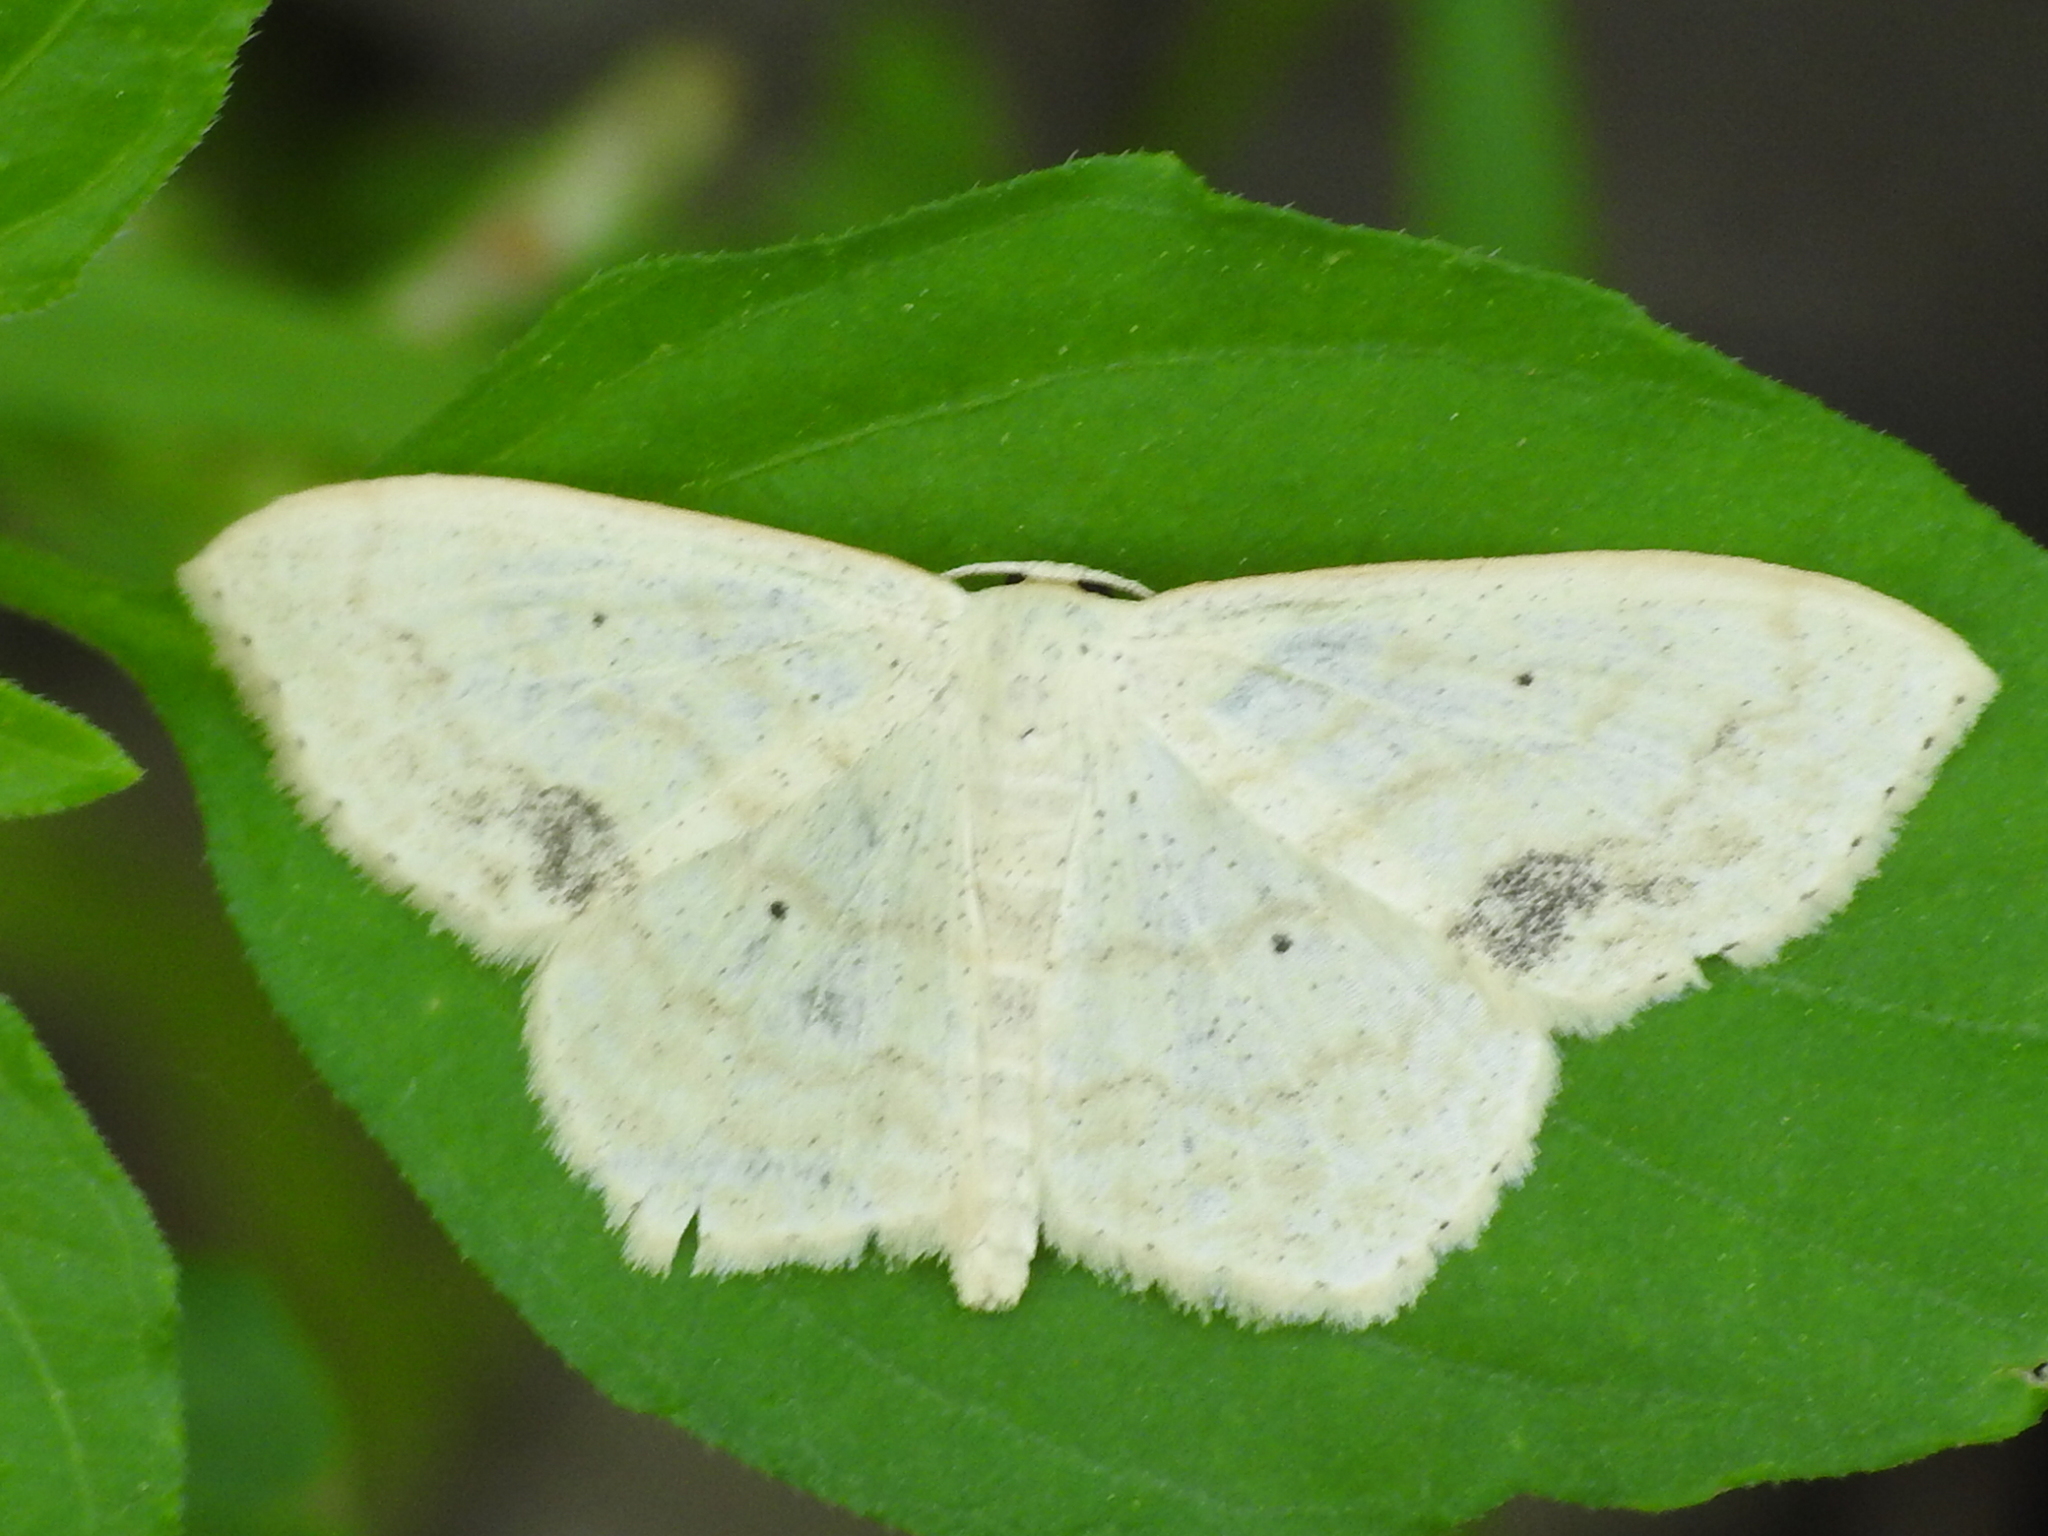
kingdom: Animalia
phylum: Arthropoda
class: Insecta
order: Lepidoptera
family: Geometridae
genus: Scopula
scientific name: Scopula limboundata
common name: Large lace border
